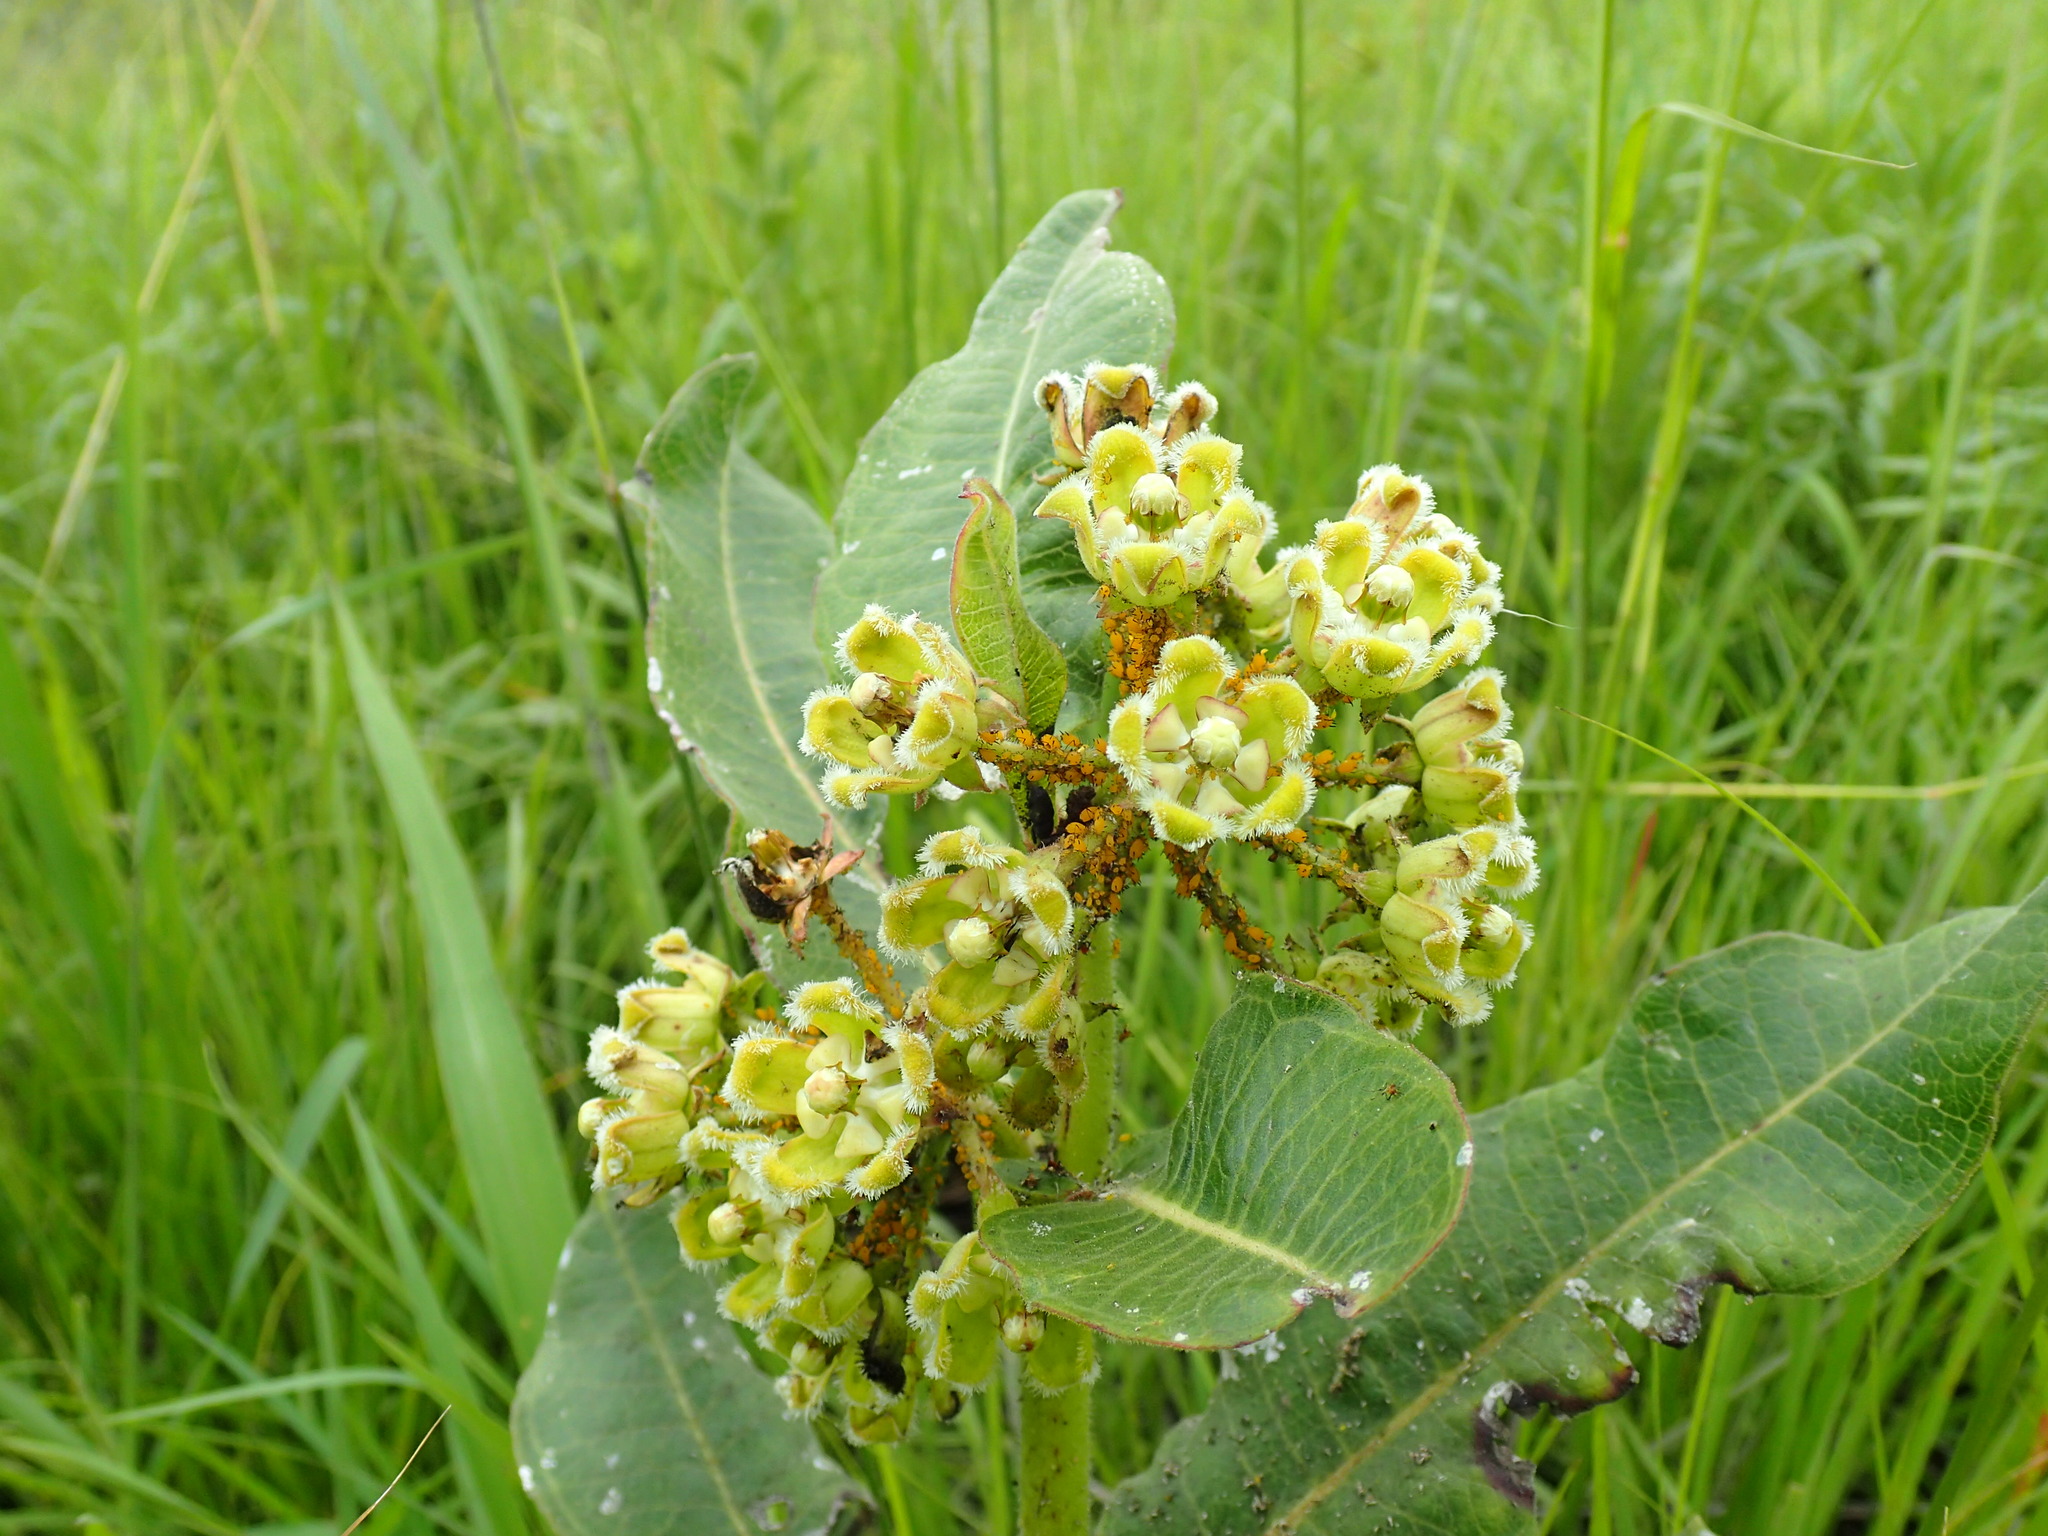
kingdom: Plantae
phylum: Tracheophyta
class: Magnoliopsida
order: Gentianales
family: Apocynaceae
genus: Xysmalobium
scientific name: Xysmalobium undulatum
